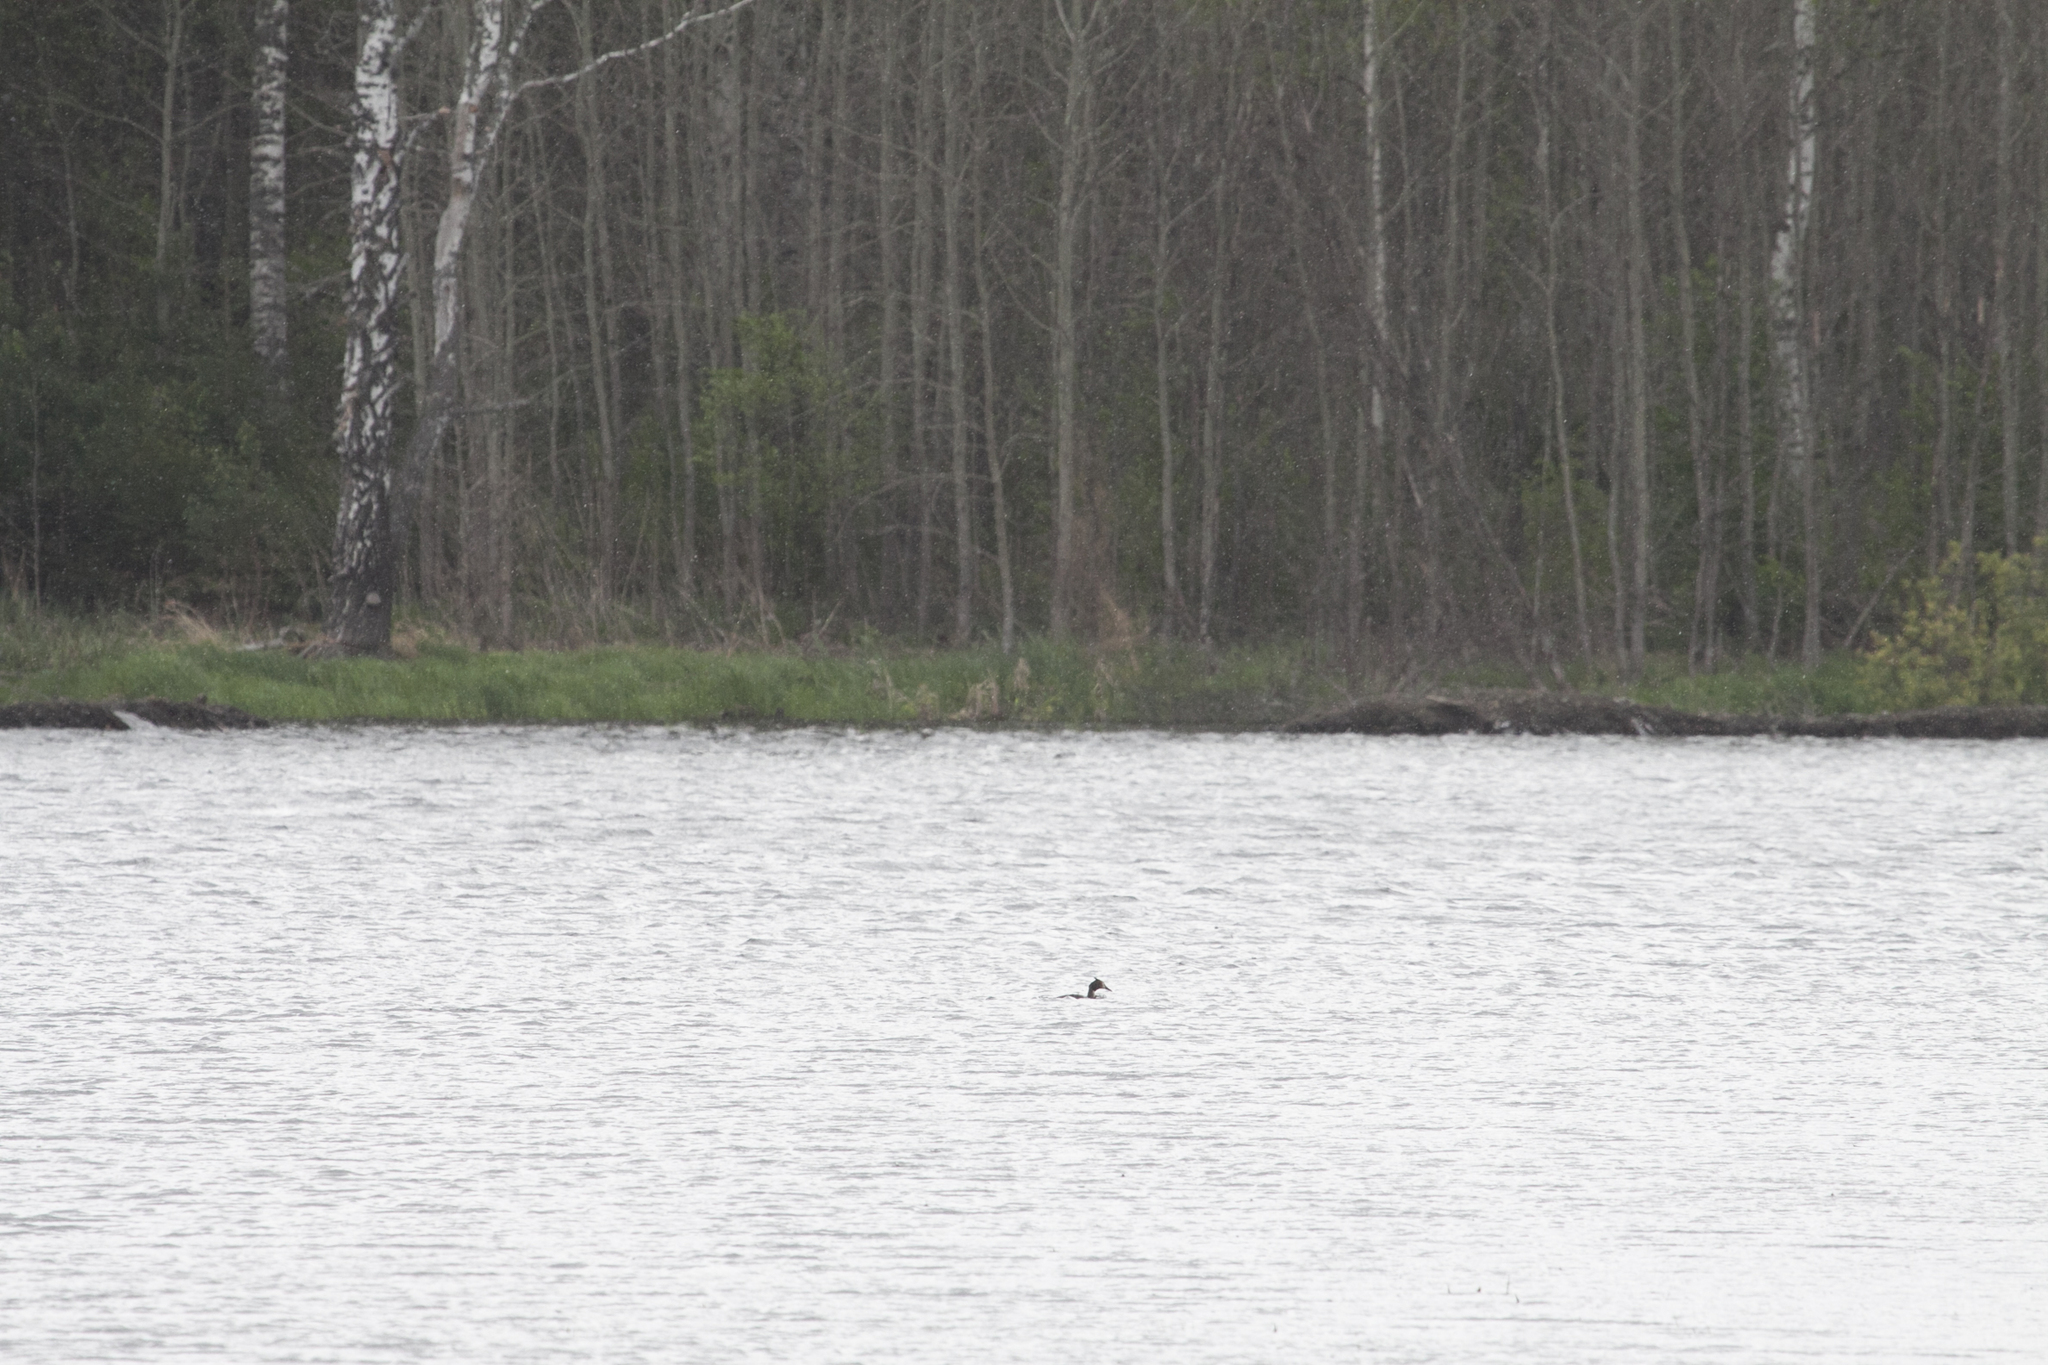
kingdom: Animalia
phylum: Chordata
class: Aves
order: Podicipediformes
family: Podicipedidae
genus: Podiceps
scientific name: Podiceps cristatus
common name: Great crested grebe
